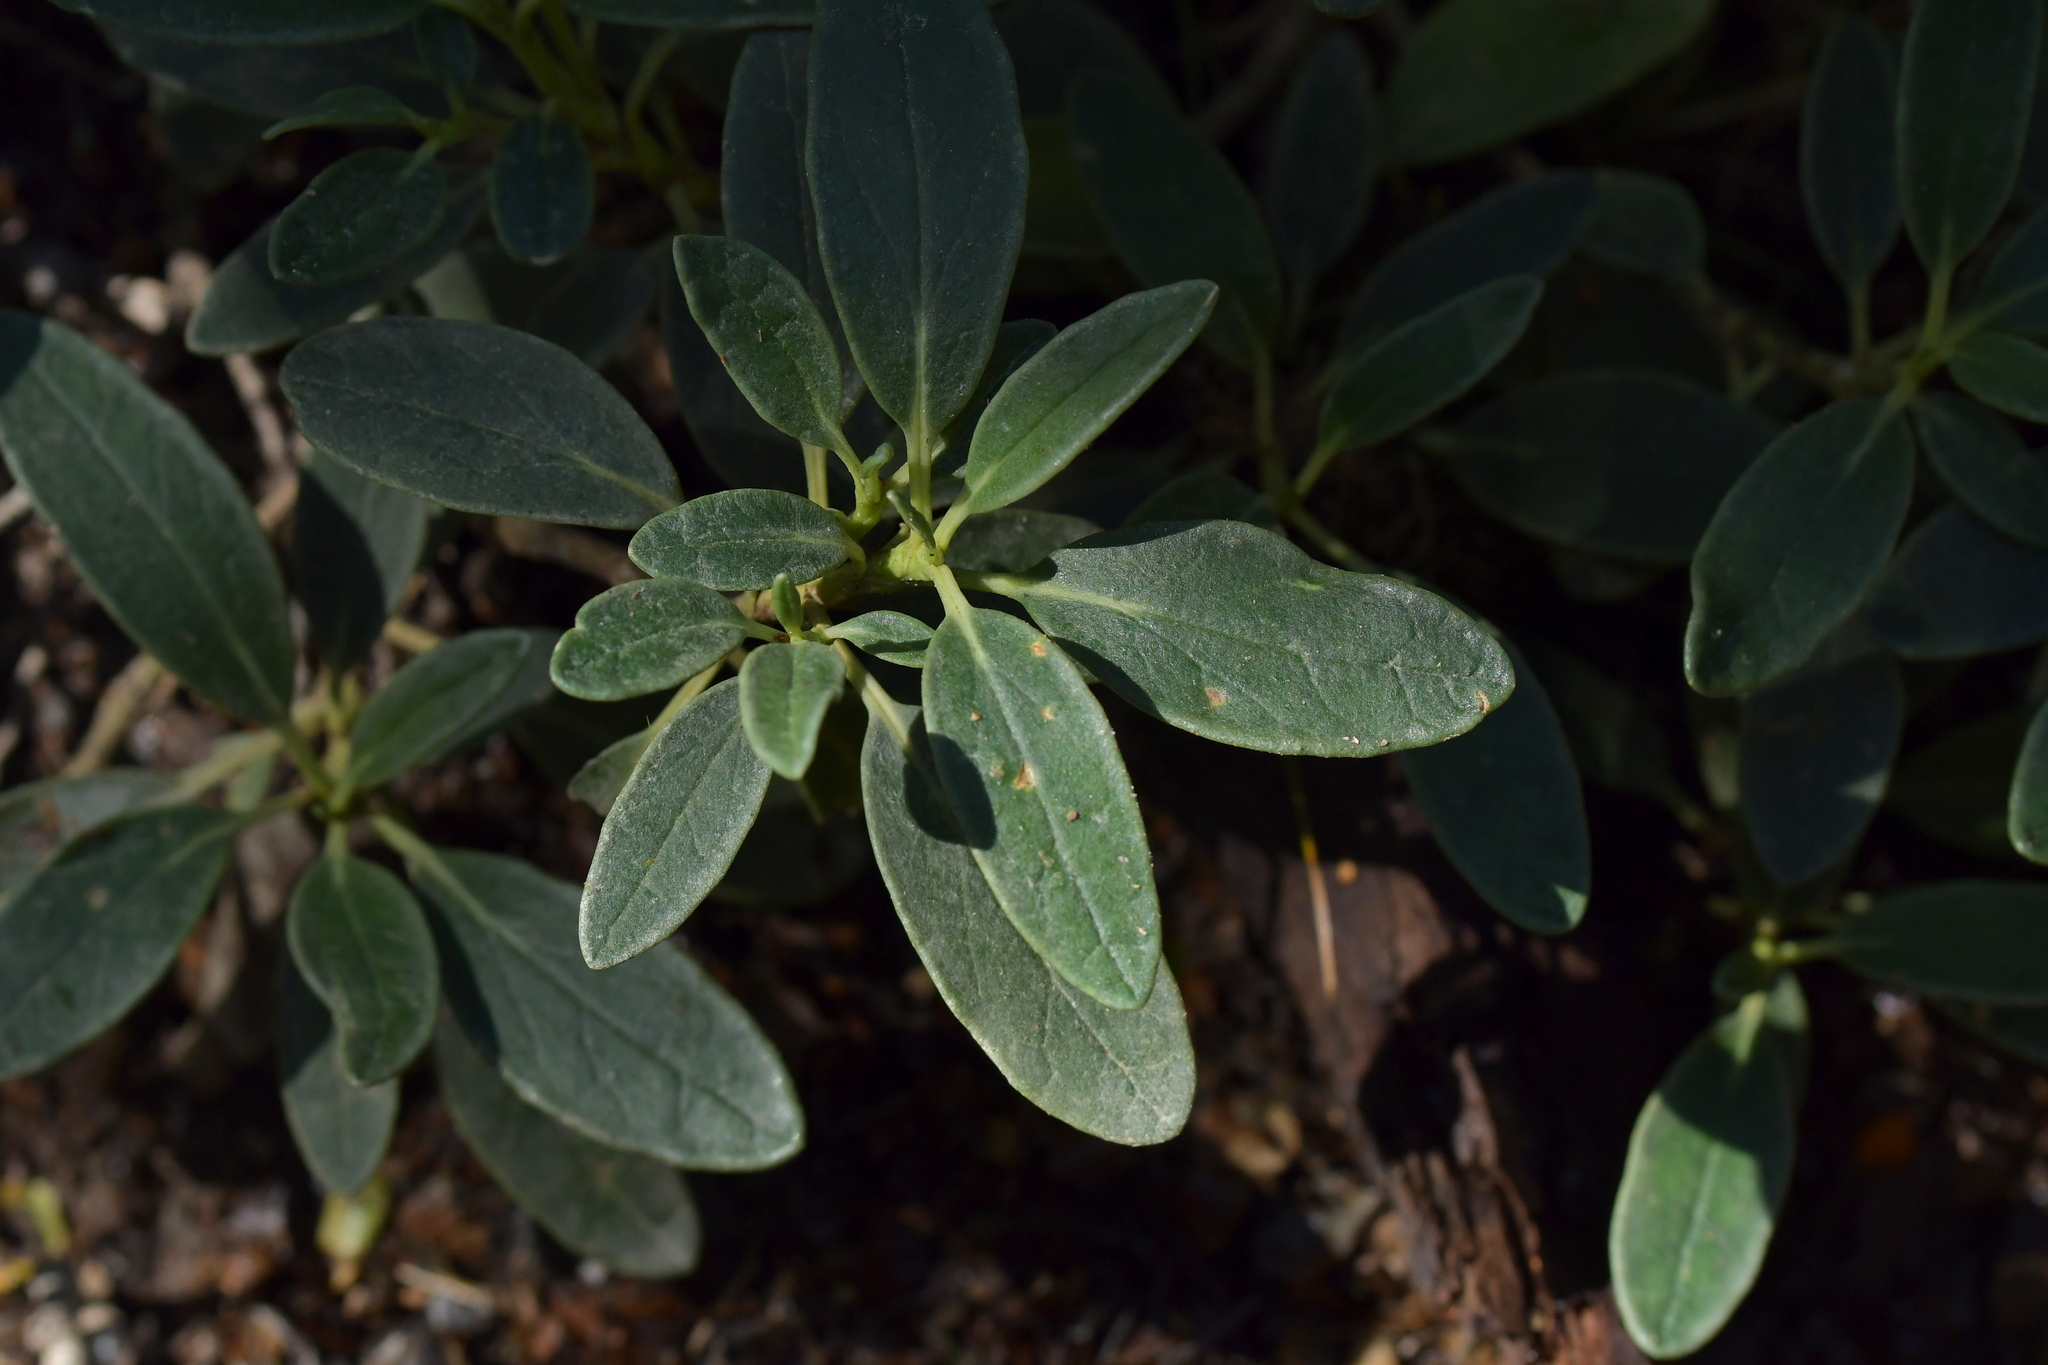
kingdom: Plantae
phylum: Tracheophyta
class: Magnoliopsida
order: Asterales
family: Asteraceae
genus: Brachyglottis
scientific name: Brachyglottis adamsii
